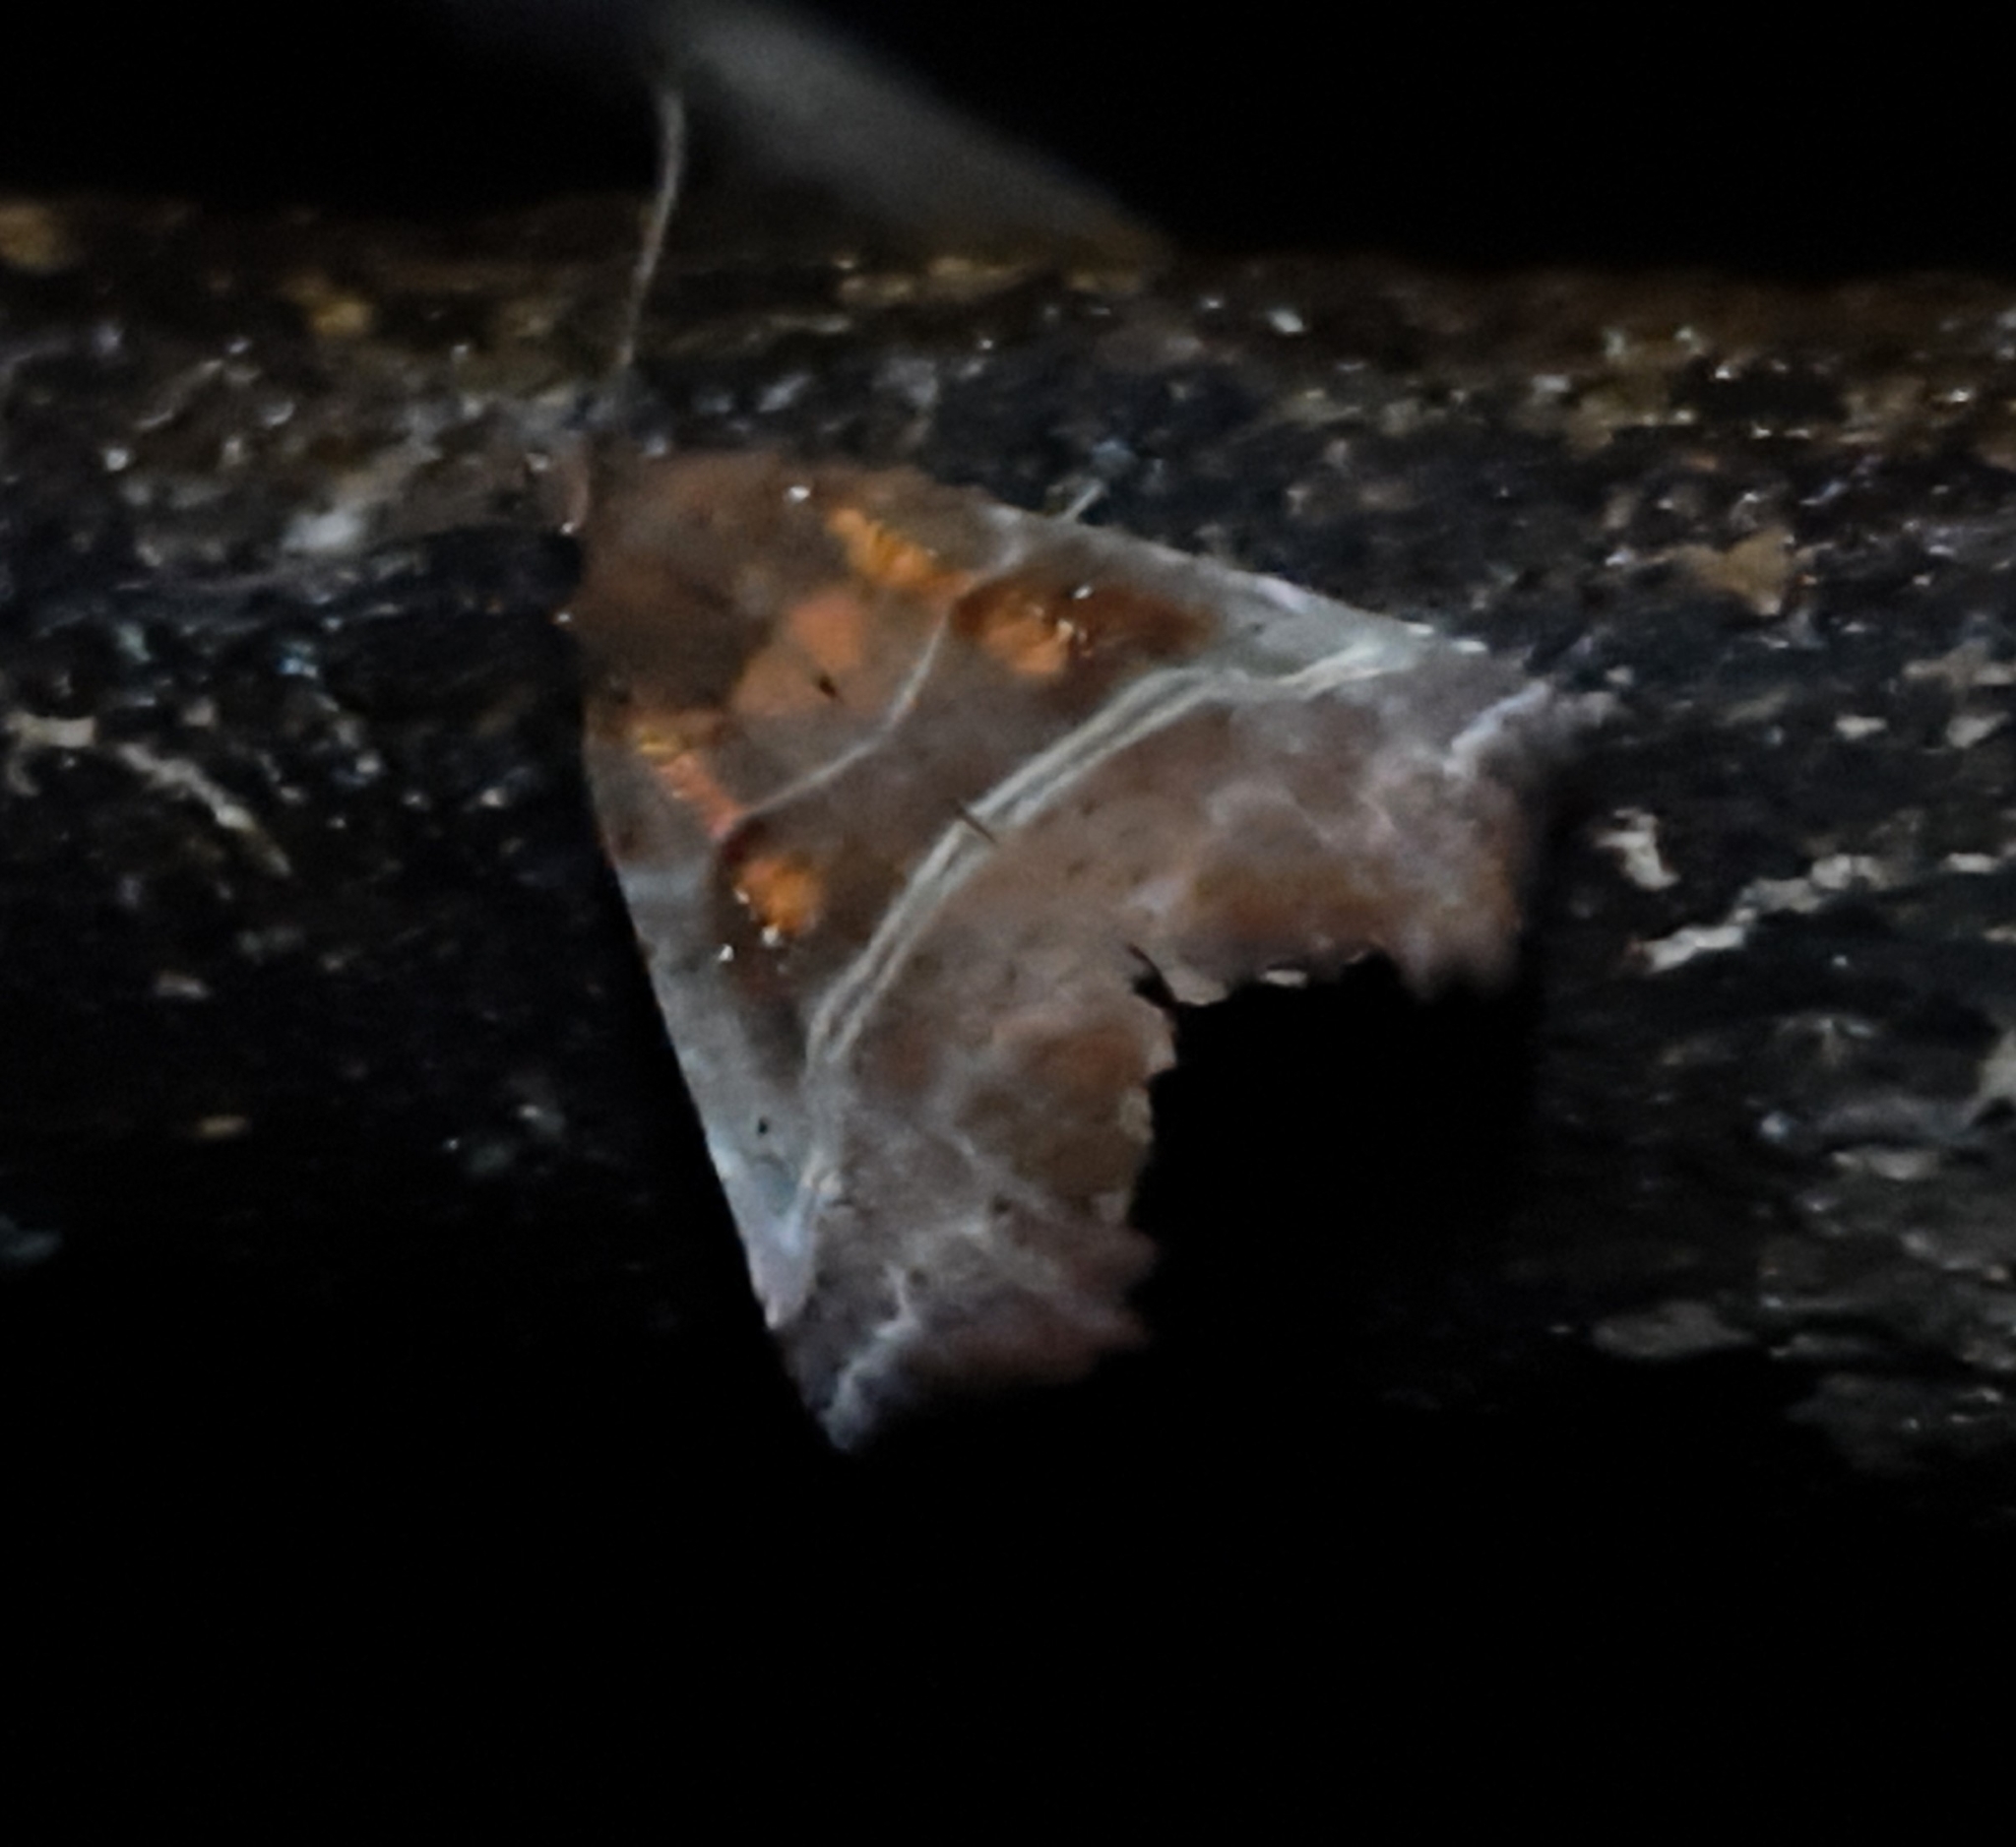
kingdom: Animalia
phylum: Arthropoda
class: Insecta
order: Lepidoptera
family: Erebidae
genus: Scoliopteryx
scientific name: Scoliopteryx libatrix
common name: Herald
